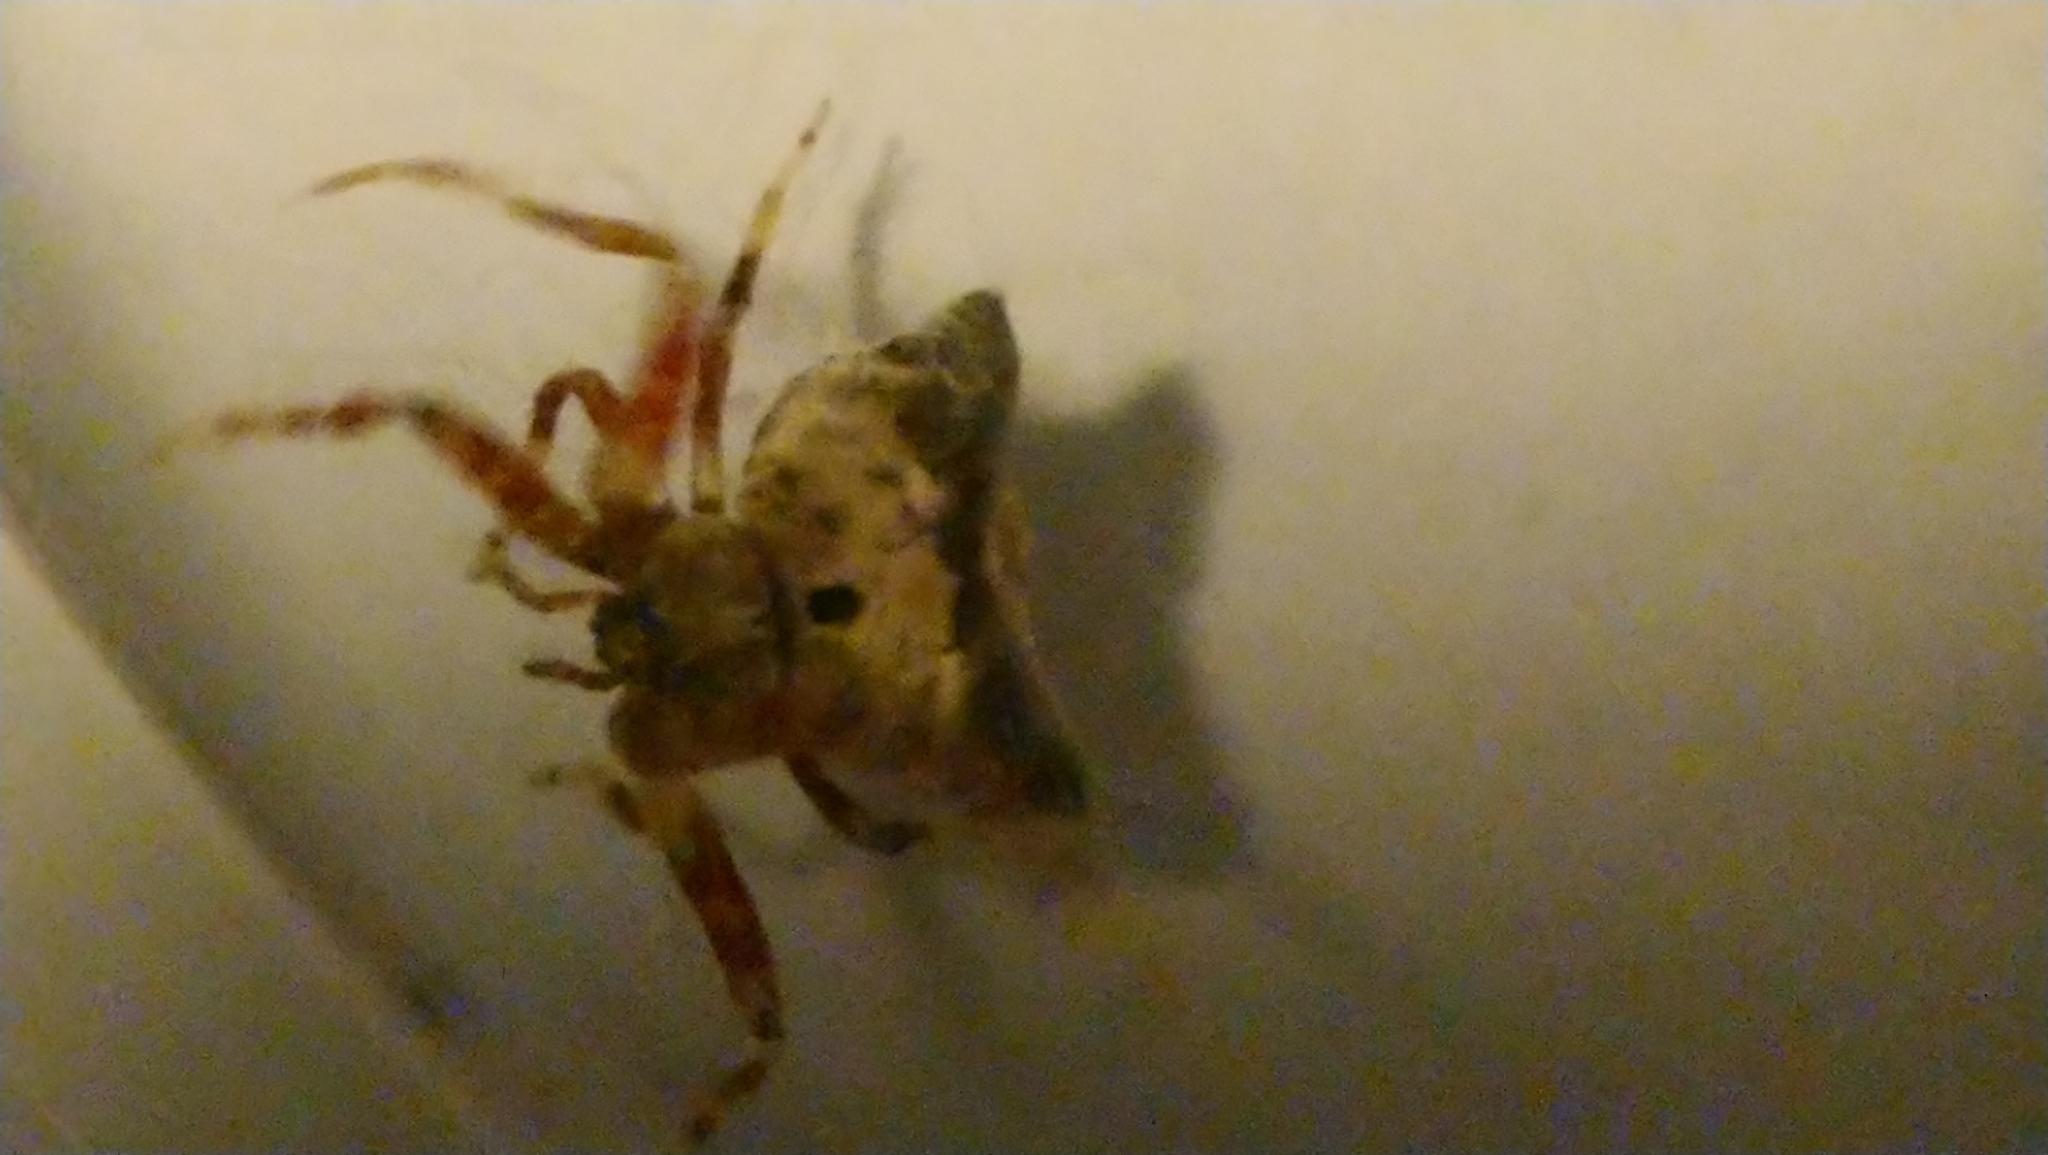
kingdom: Animalia
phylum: Arthropoda
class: Arachnida
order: Araneae
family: Araneidae
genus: Celaenia
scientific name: Celaenia olivacea
